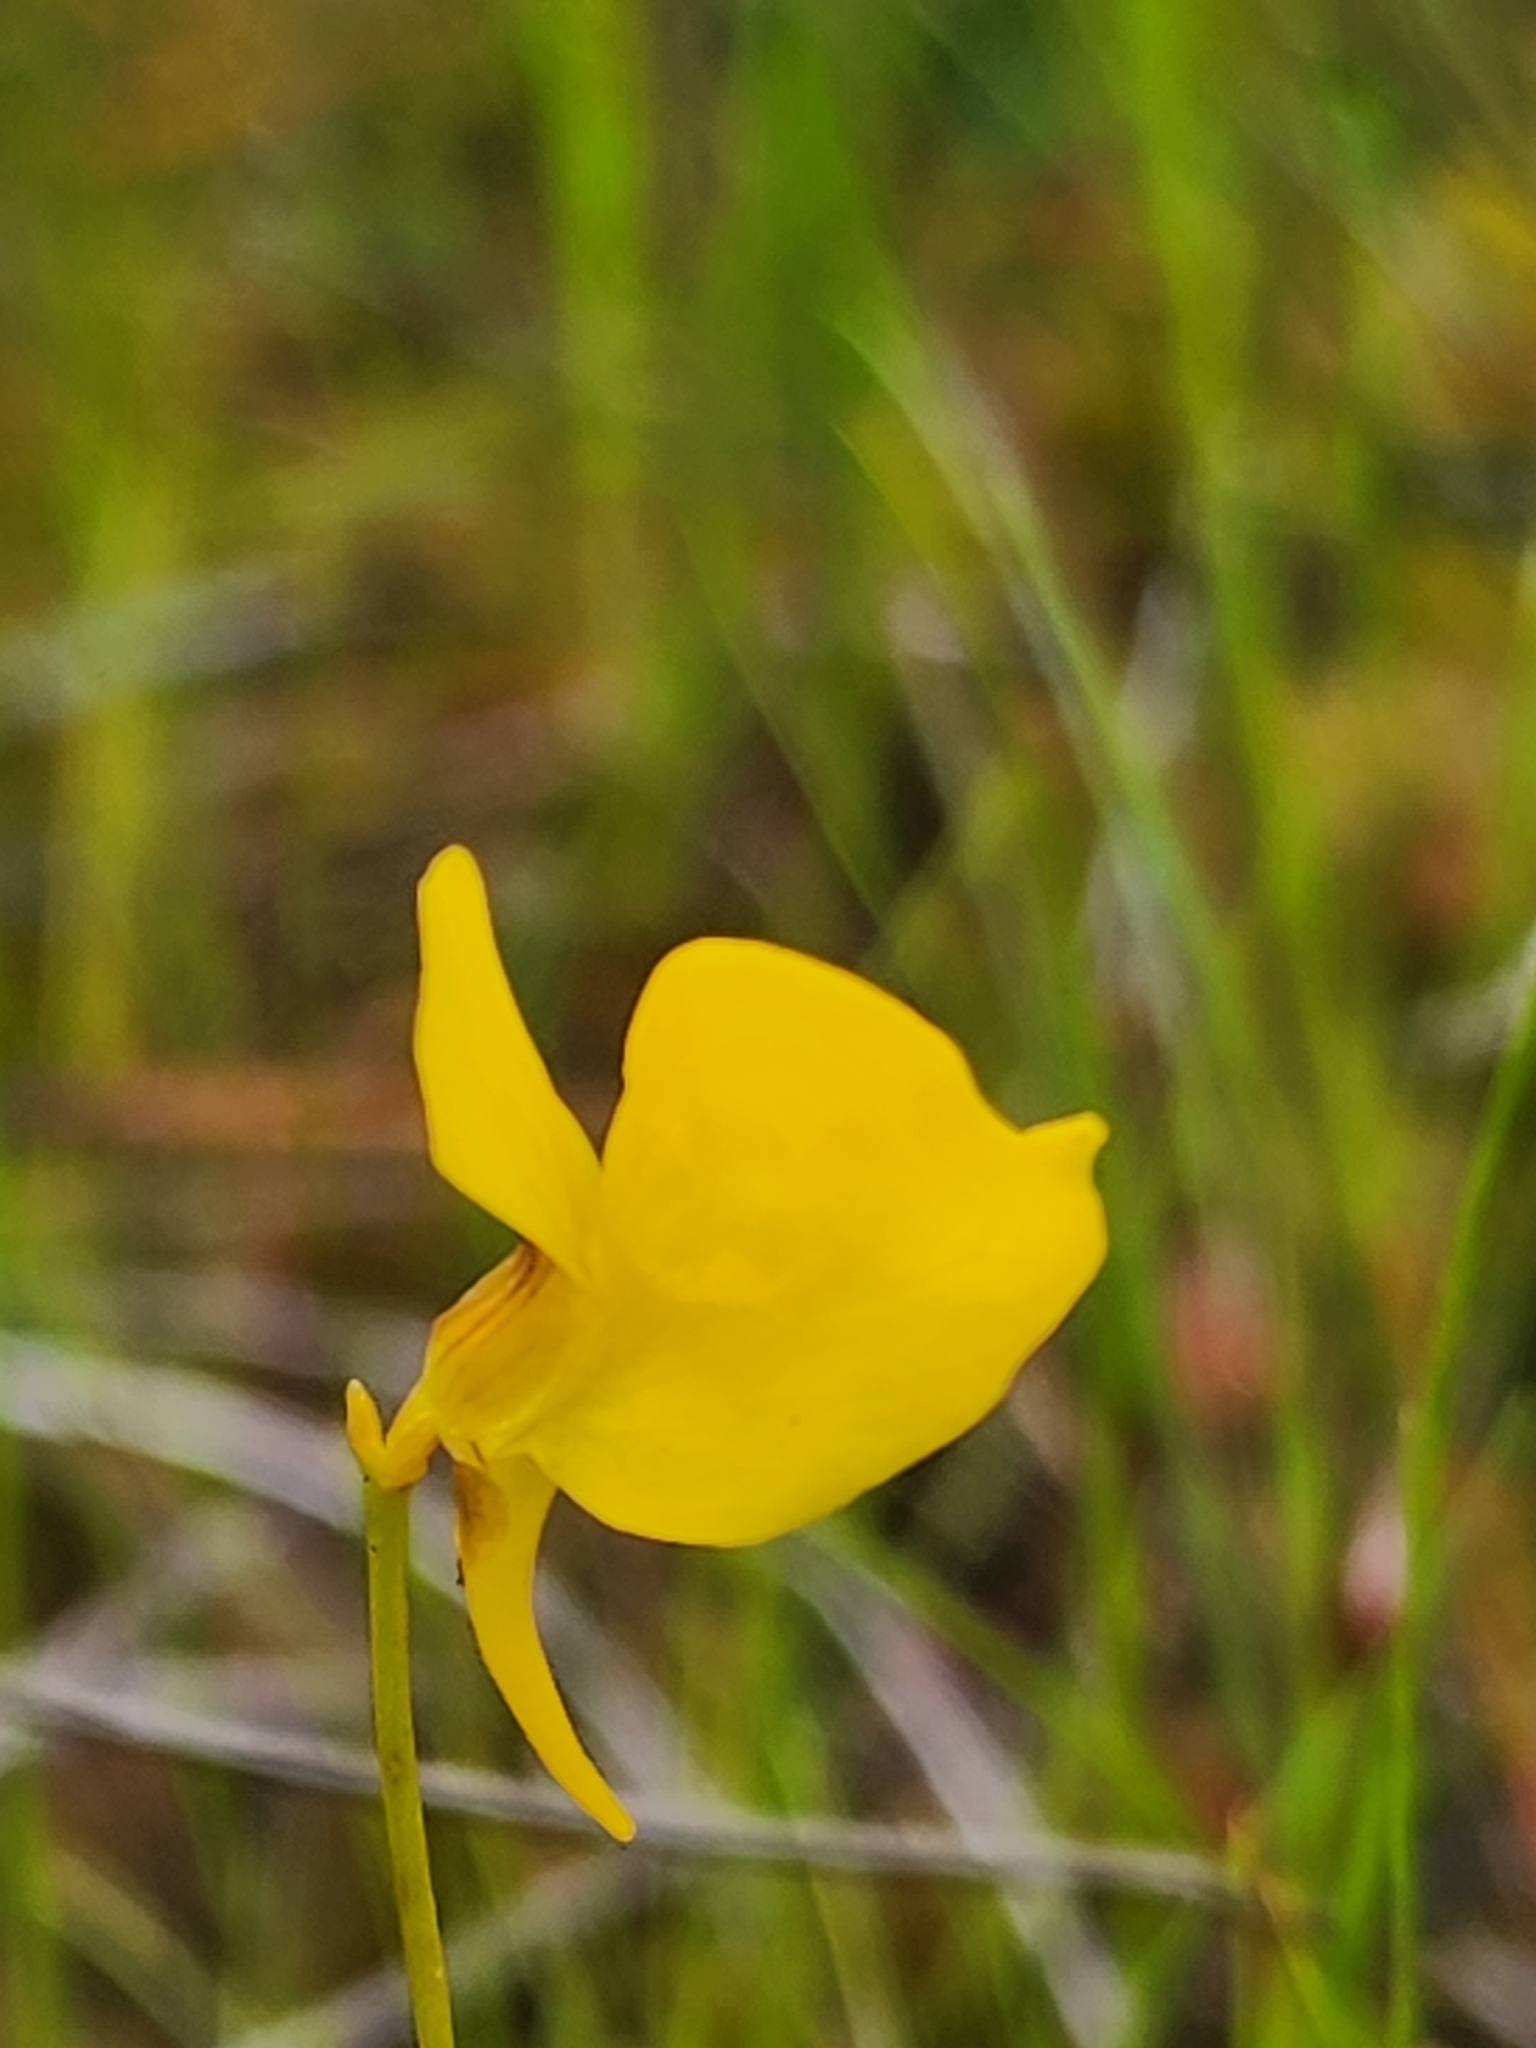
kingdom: Plantae
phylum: Tracheophyta
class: Magnoliopsida
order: Lamiales
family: Lentibulariaceae
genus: Utricularia
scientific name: Utricularia cornuta
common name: Horned bladderwort
